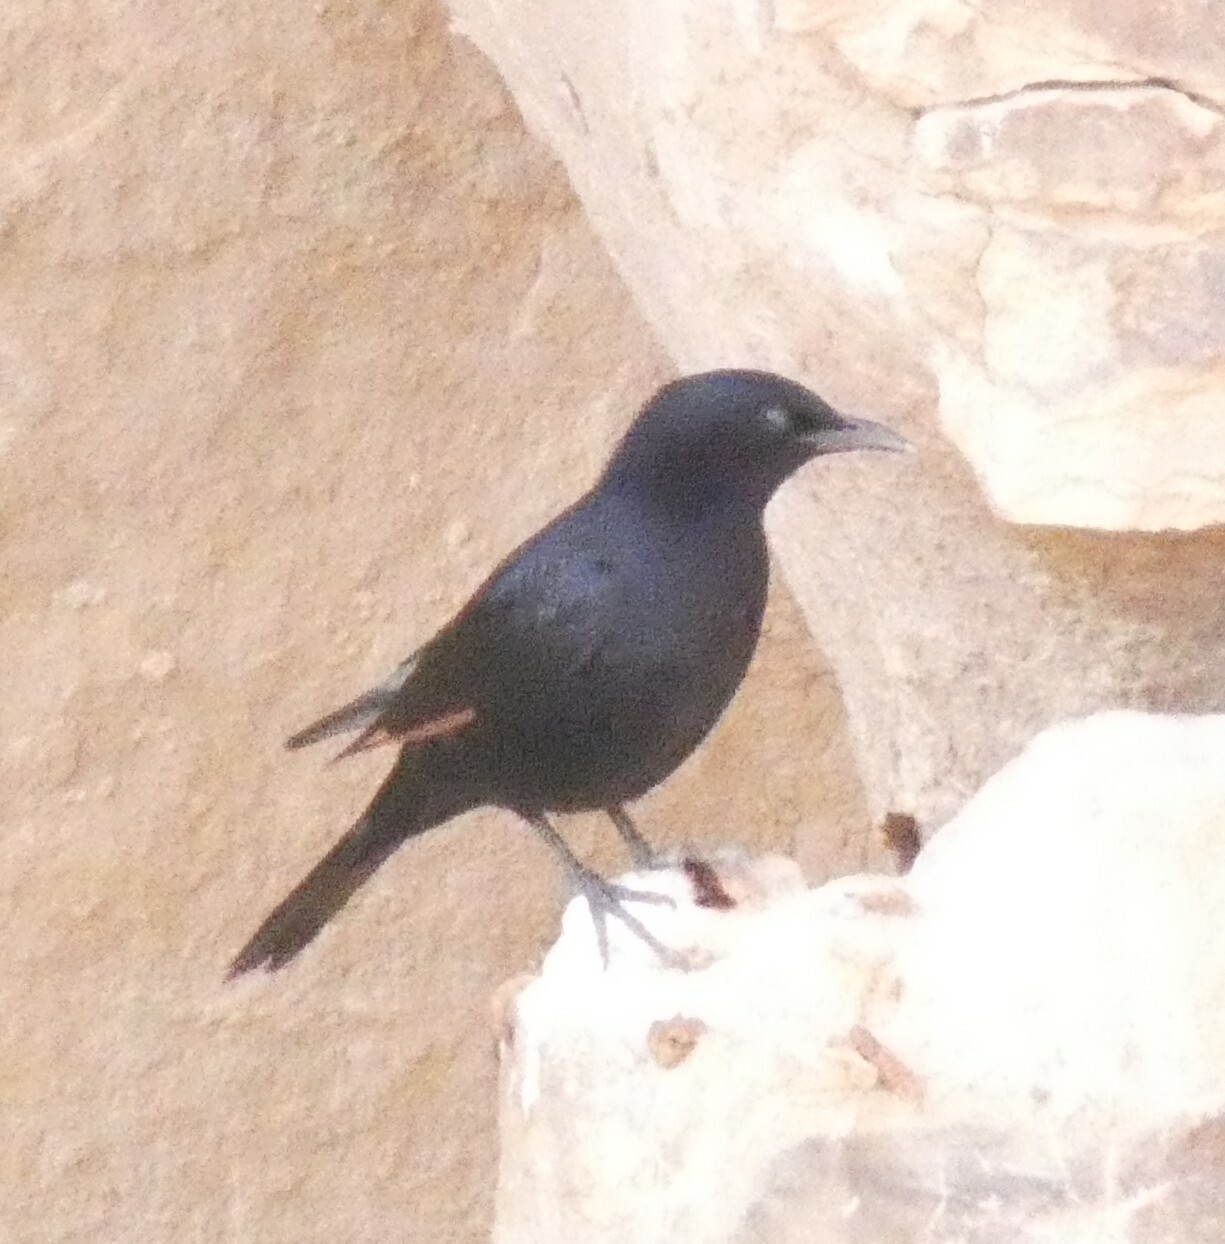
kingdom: Animalia
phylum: Chordata
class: Aves
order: Passeriformes
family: Sturnidae
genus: Onychognathus
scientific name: Onychognathus tristramii
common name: Tristram's starling
